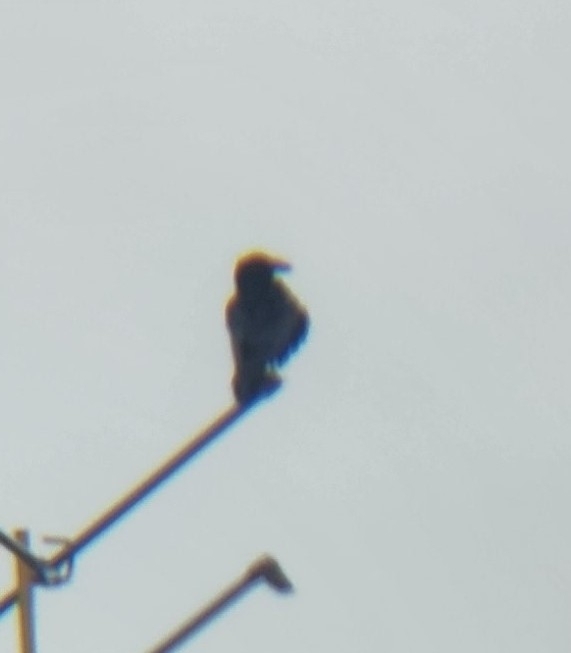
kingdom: Animalia
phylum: Chordata
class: Aves
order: Passeriformes
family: Corvidae
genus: Corvus
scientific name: Corvus corax
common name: Common raven
